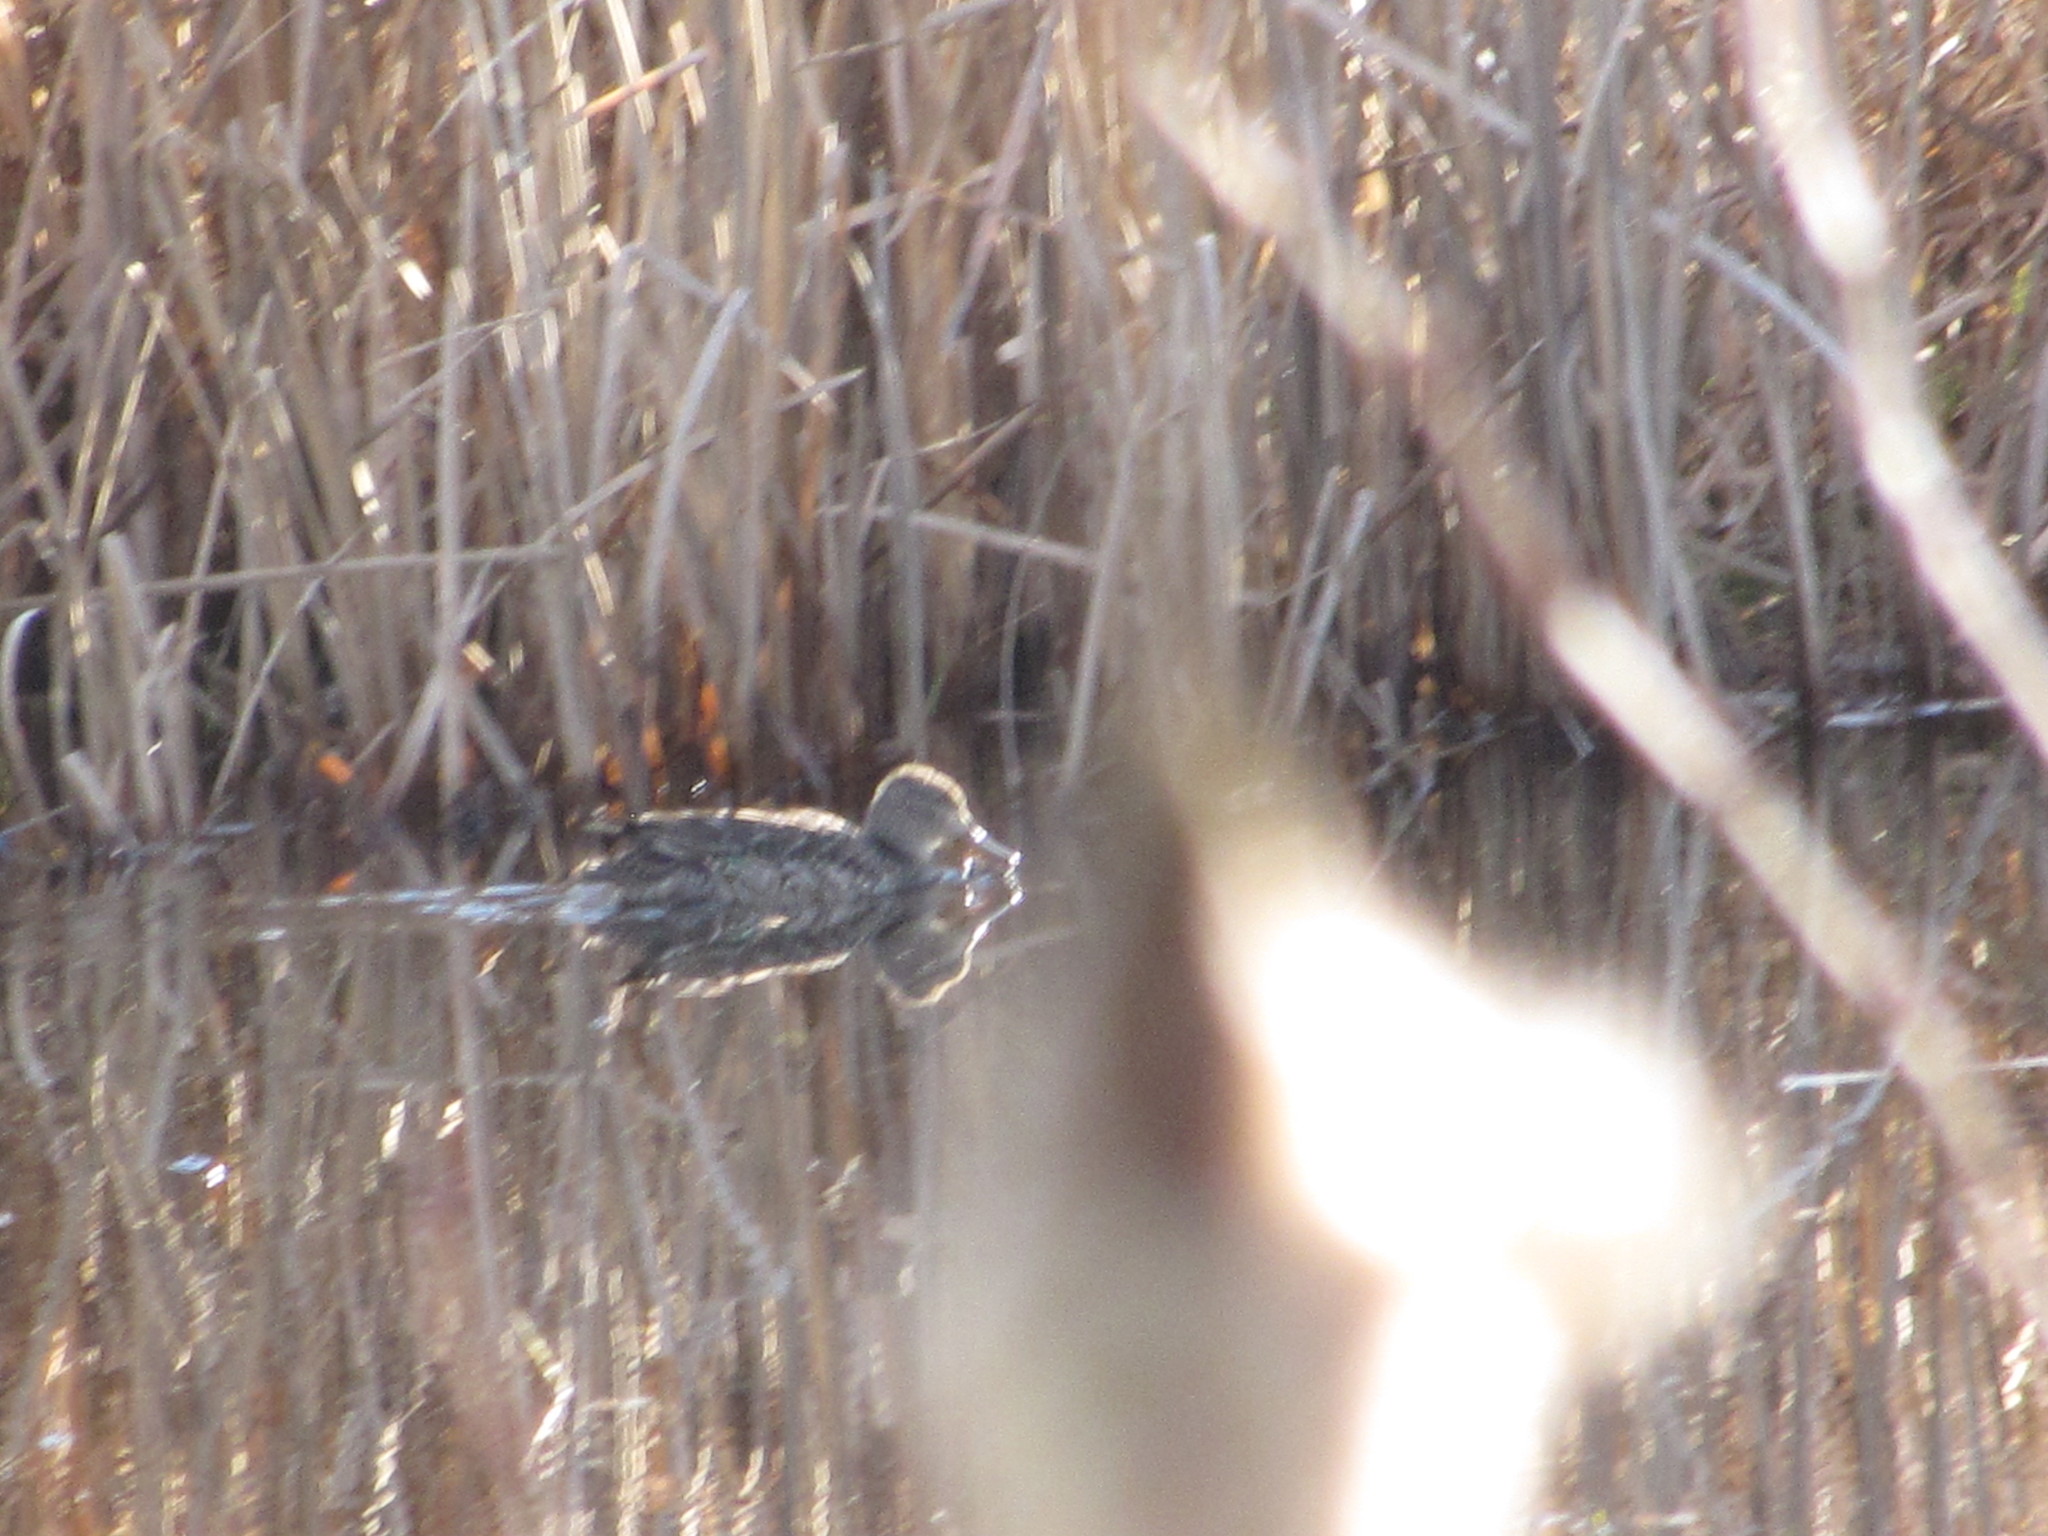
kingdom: Animalia
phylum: Chordata
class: Aves
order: Anseriformes
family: Anatidae
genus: Anas
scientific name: Anas platyrhynchos
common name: Mallard
